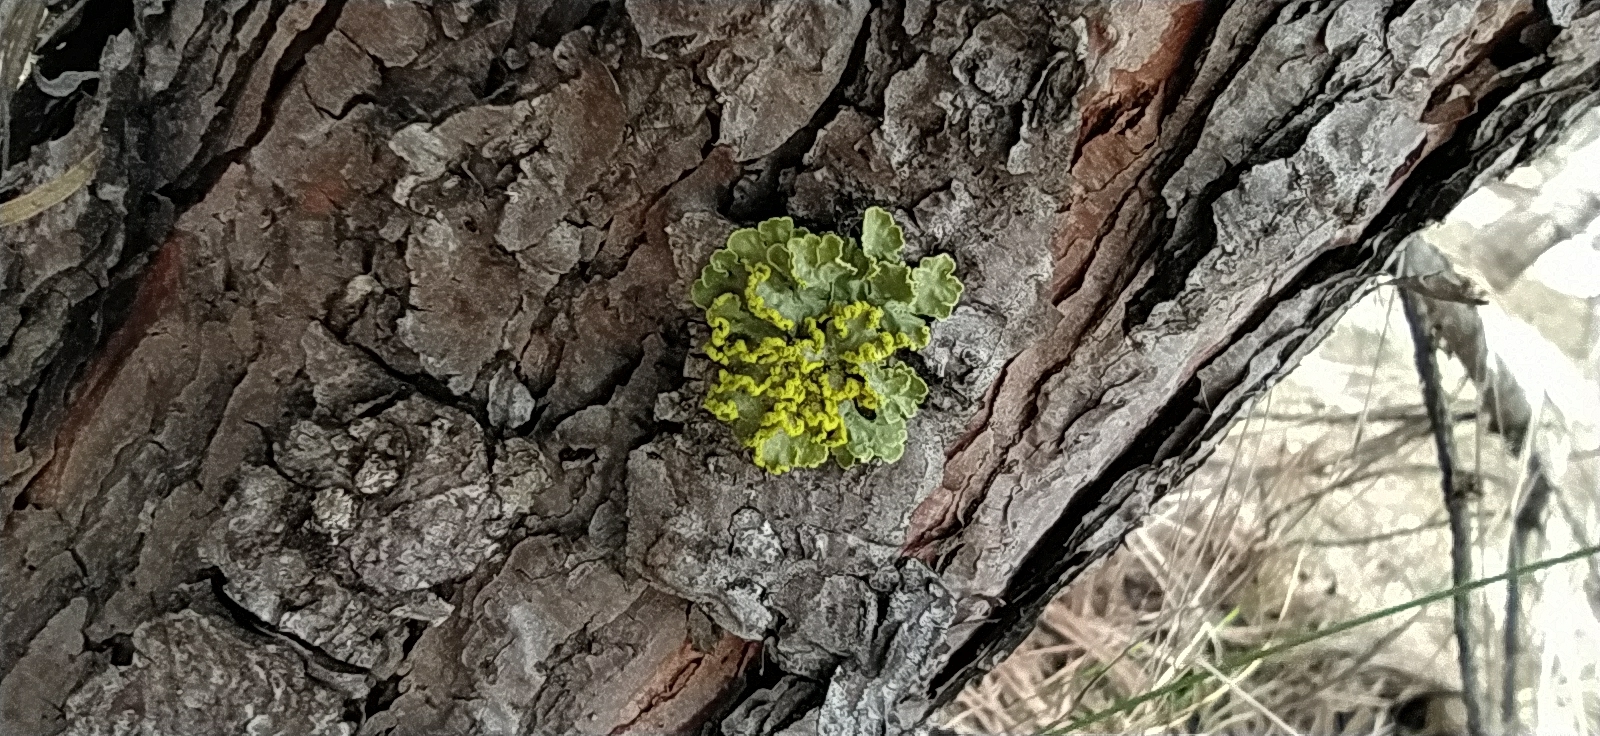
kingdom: Fungi
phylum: Ascomycota
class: Lecanoromycetes
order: Lecanorales
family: Parmeliaceae
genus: Vulpicida
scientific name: Vulpicida pinastri
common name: Powdered sunshine lichen
